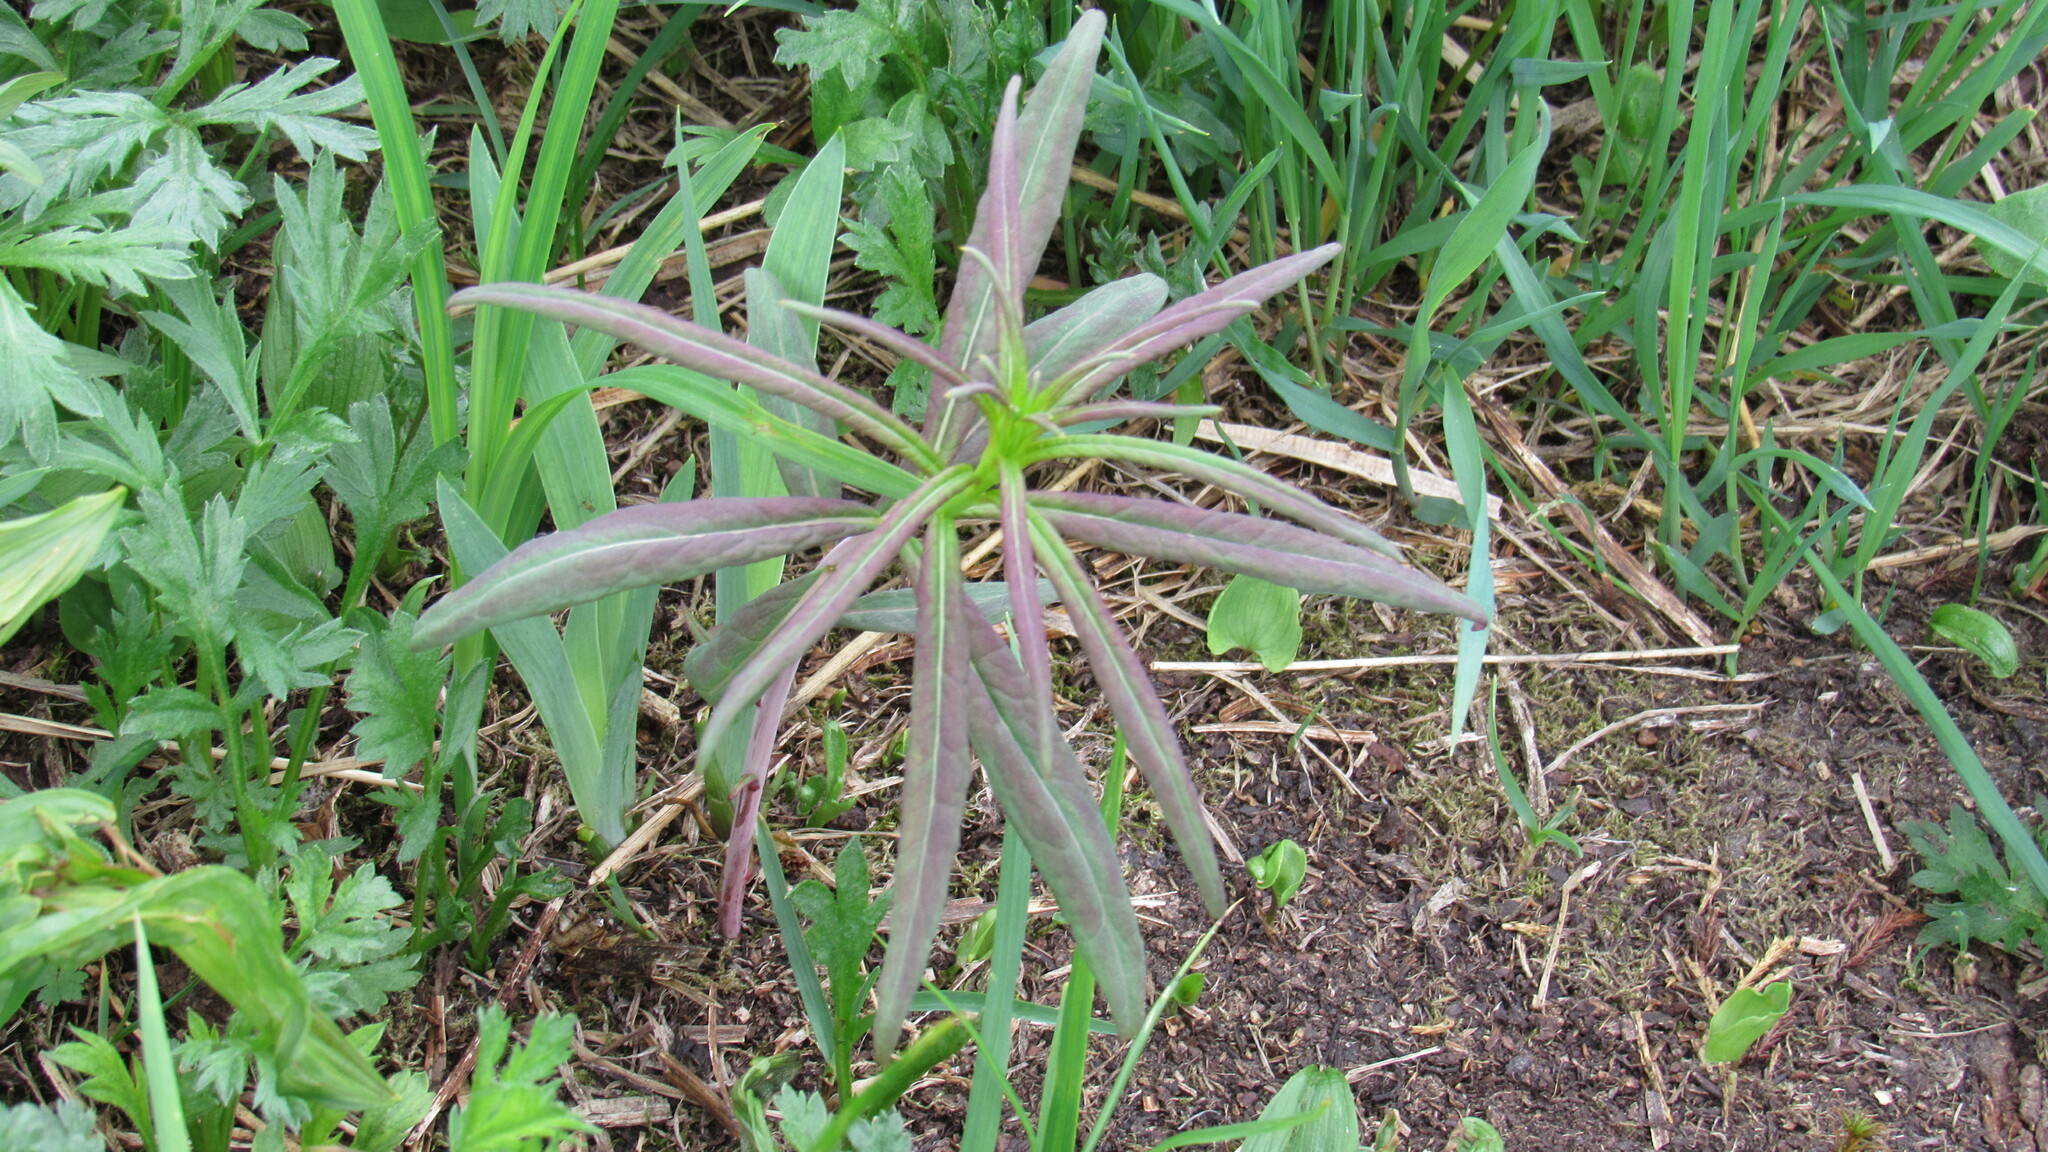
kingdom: Plantae
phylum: Tracheophyta
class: Magnoliopsida
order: Myrtales
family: Onagraceae
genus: Chamaenerion
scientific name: Chamaenerion angustifolium
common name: Fireweed
